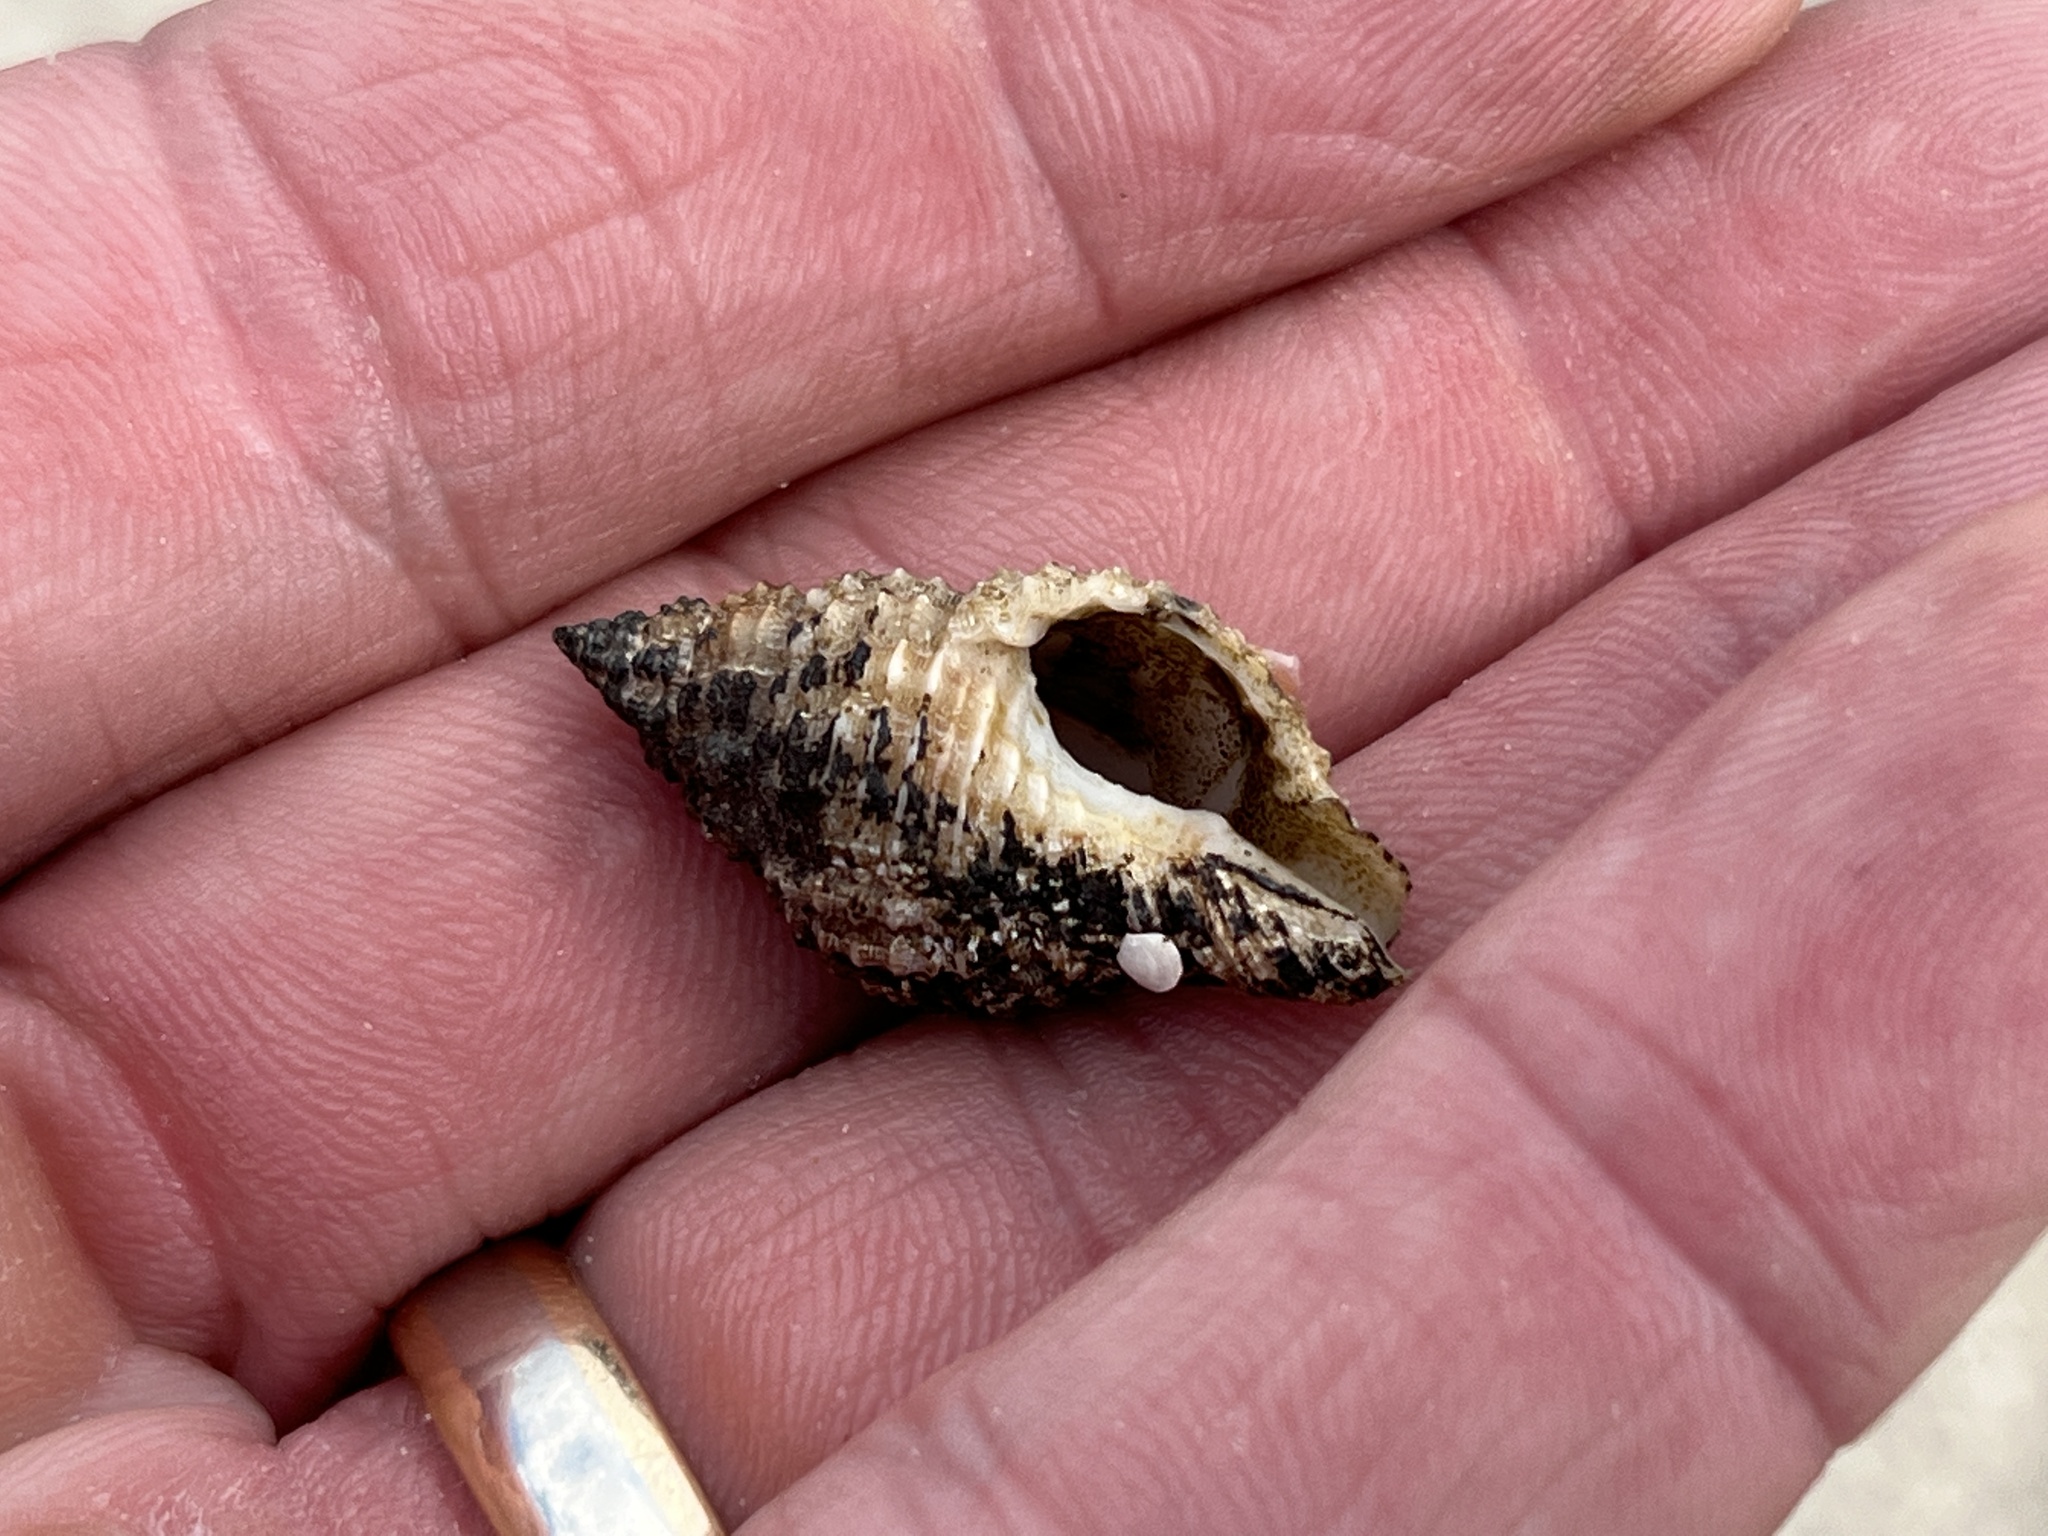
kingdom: Animalia
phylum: Mollusca
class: Gastropoda
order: Neogastropoda
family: Pisaniidae
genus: Solenosteira
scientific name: Solenosteira cancellaria
